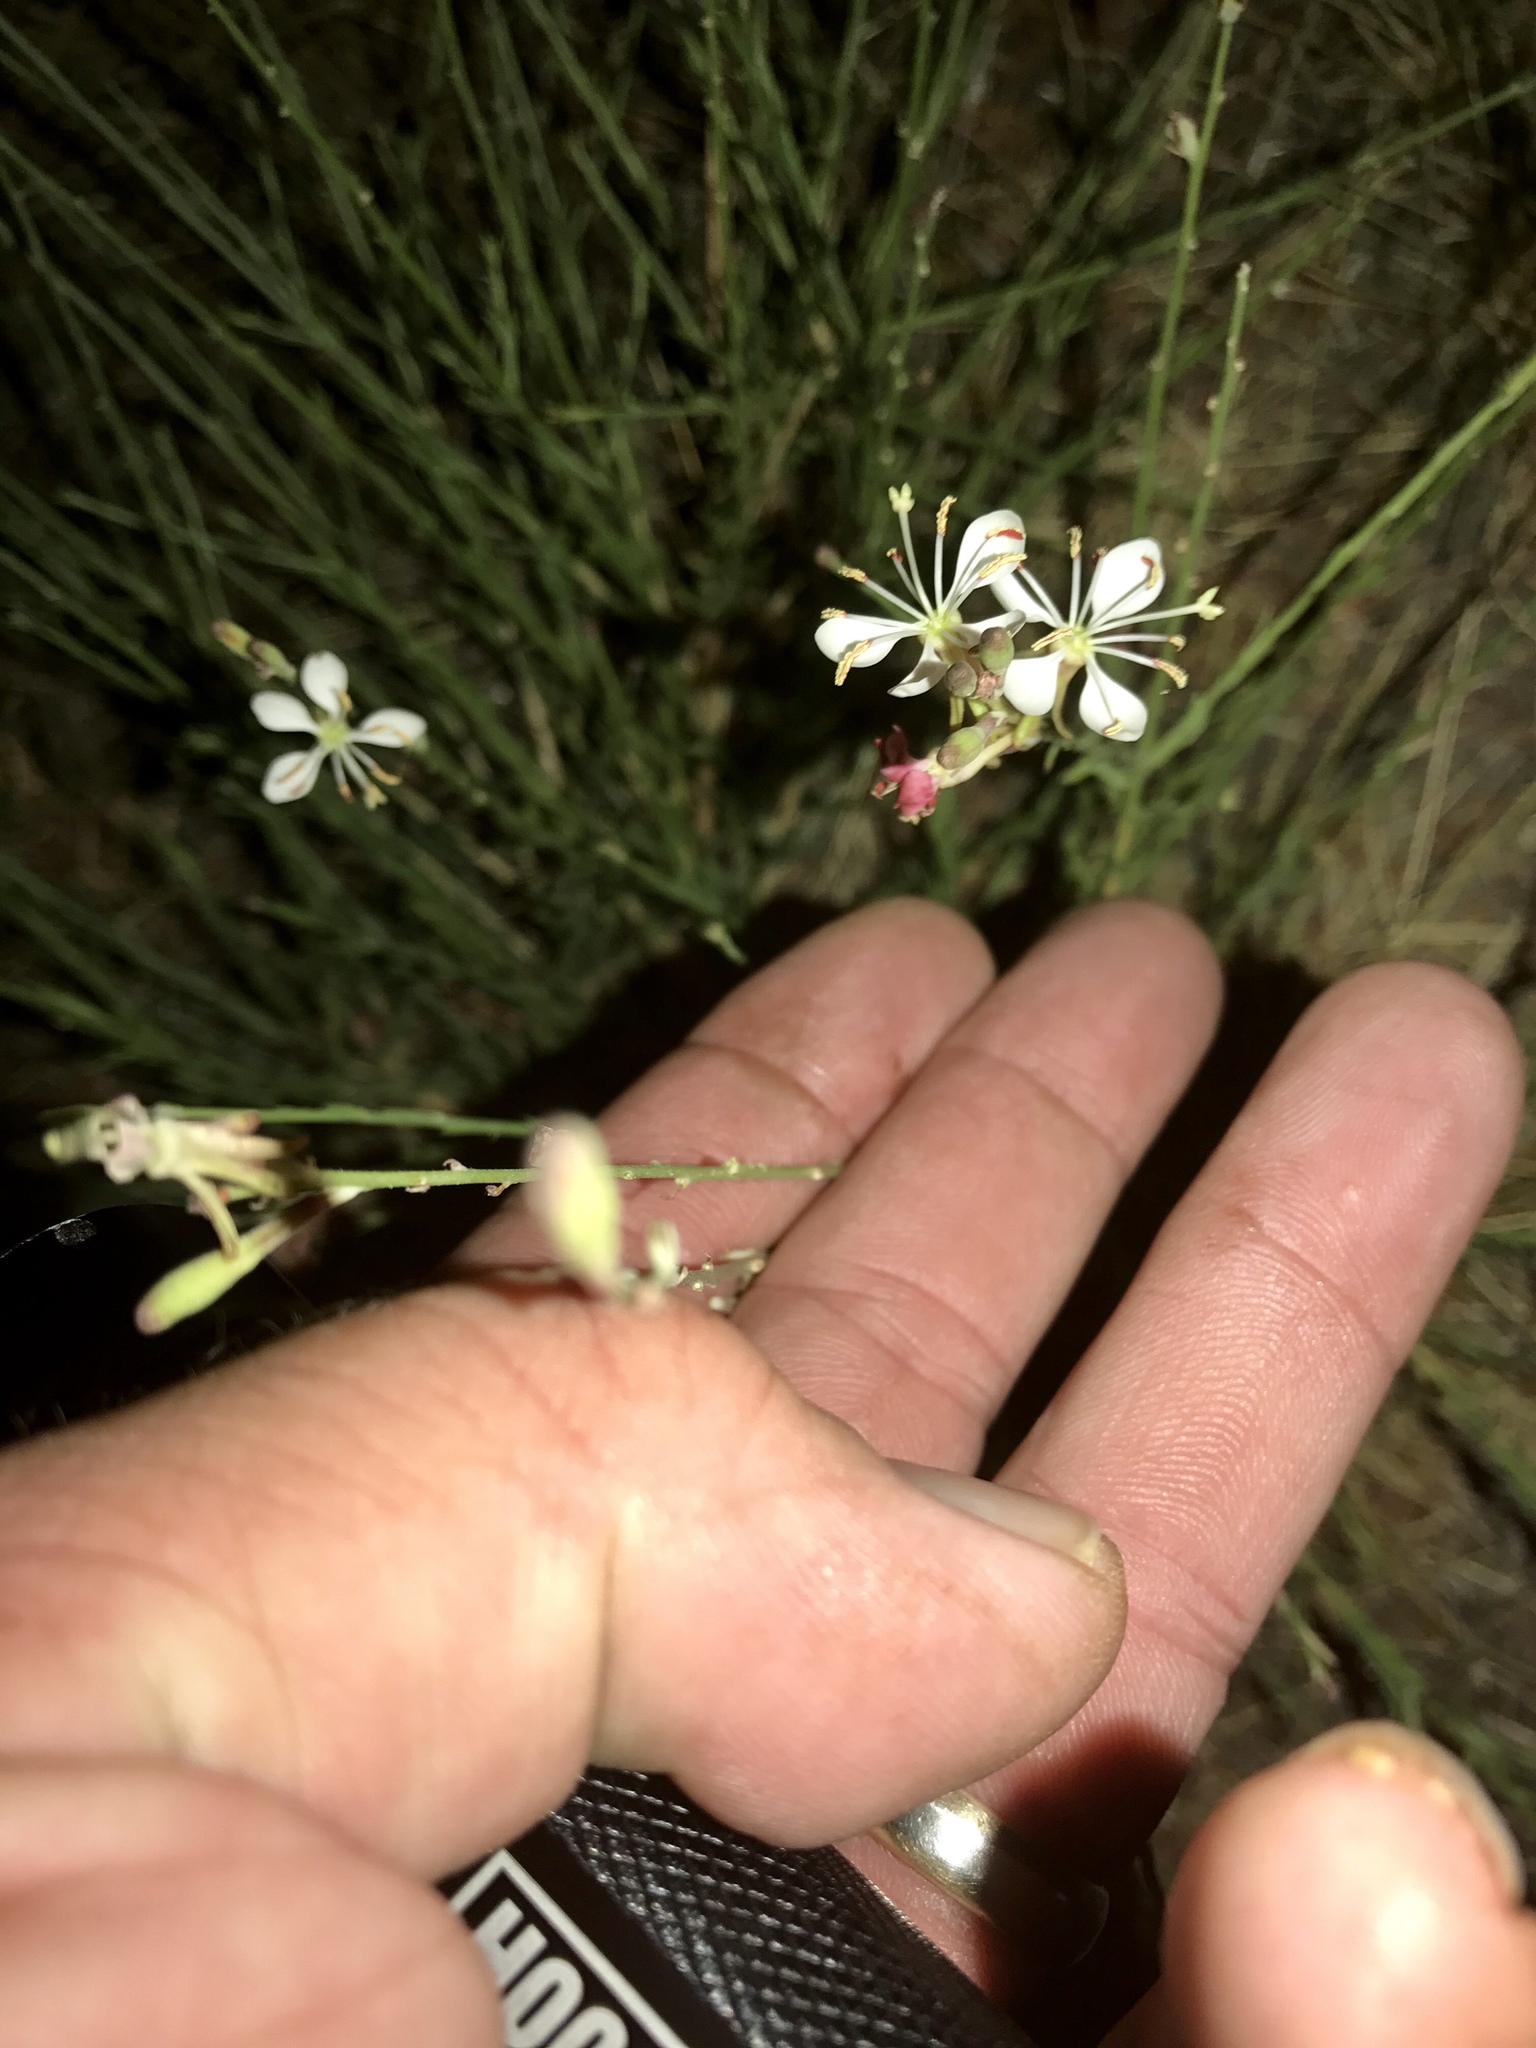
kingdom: Plantae
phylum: Tracheophyta
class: Magnoliopsida
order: Myrtales
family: Onagraceae
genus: Oenothera
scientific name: Oenothera podocarpa
